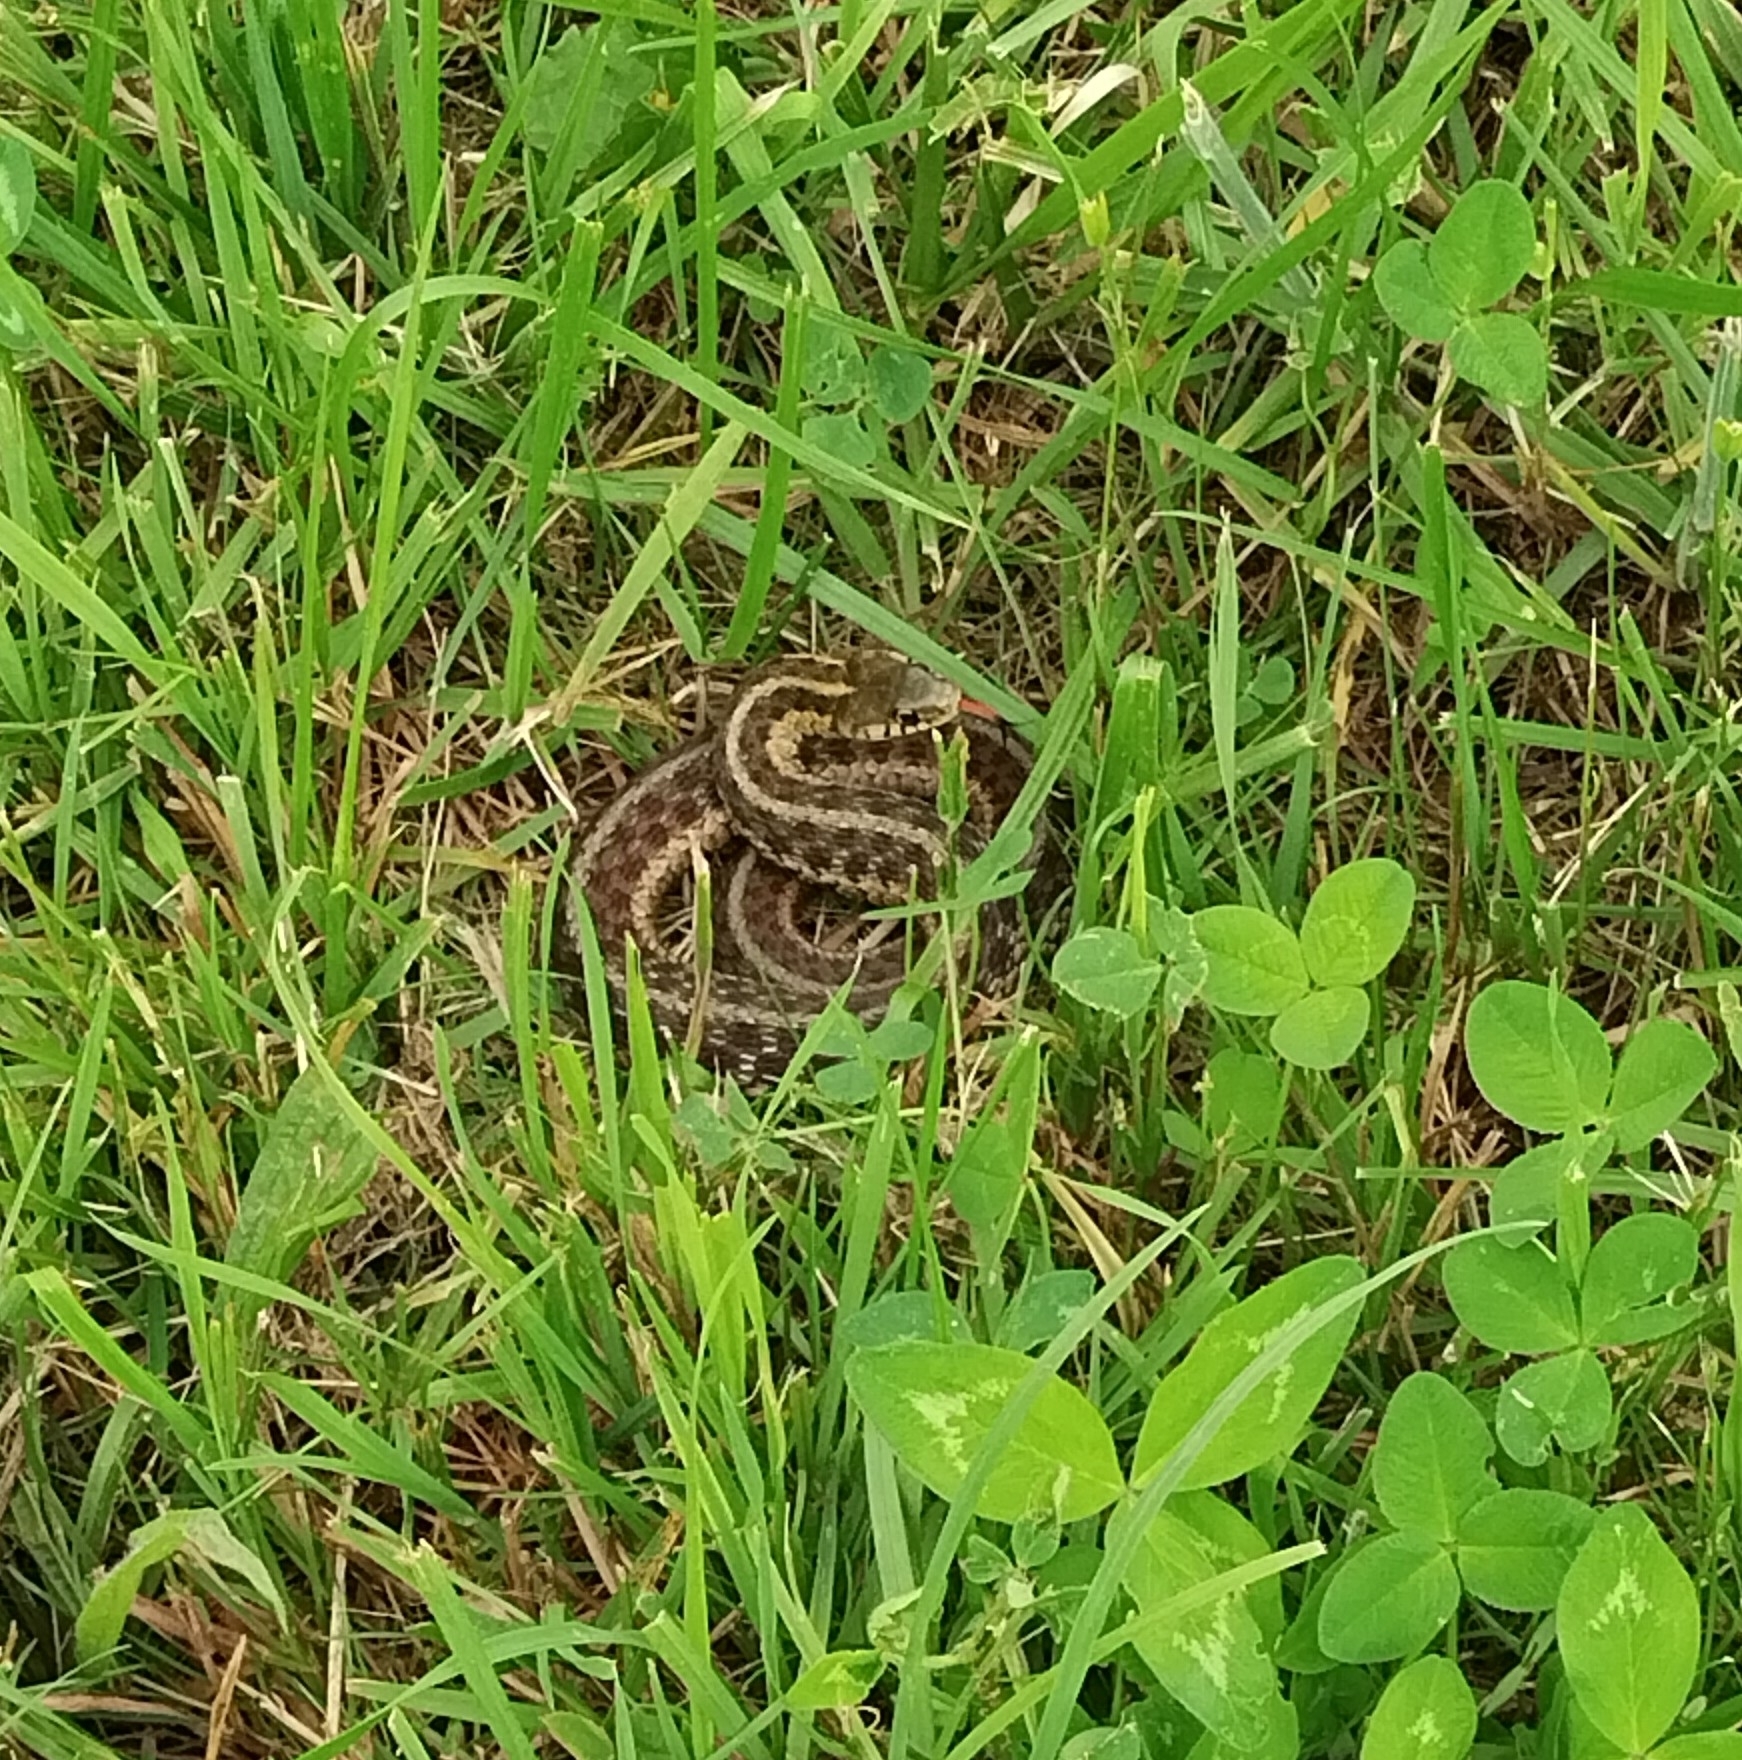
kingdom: Animalia
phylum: Chordata
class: Squamata
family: Colubridae
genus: Thamnophis
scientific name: Thamnophis sirtalis
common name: Common garter snake
